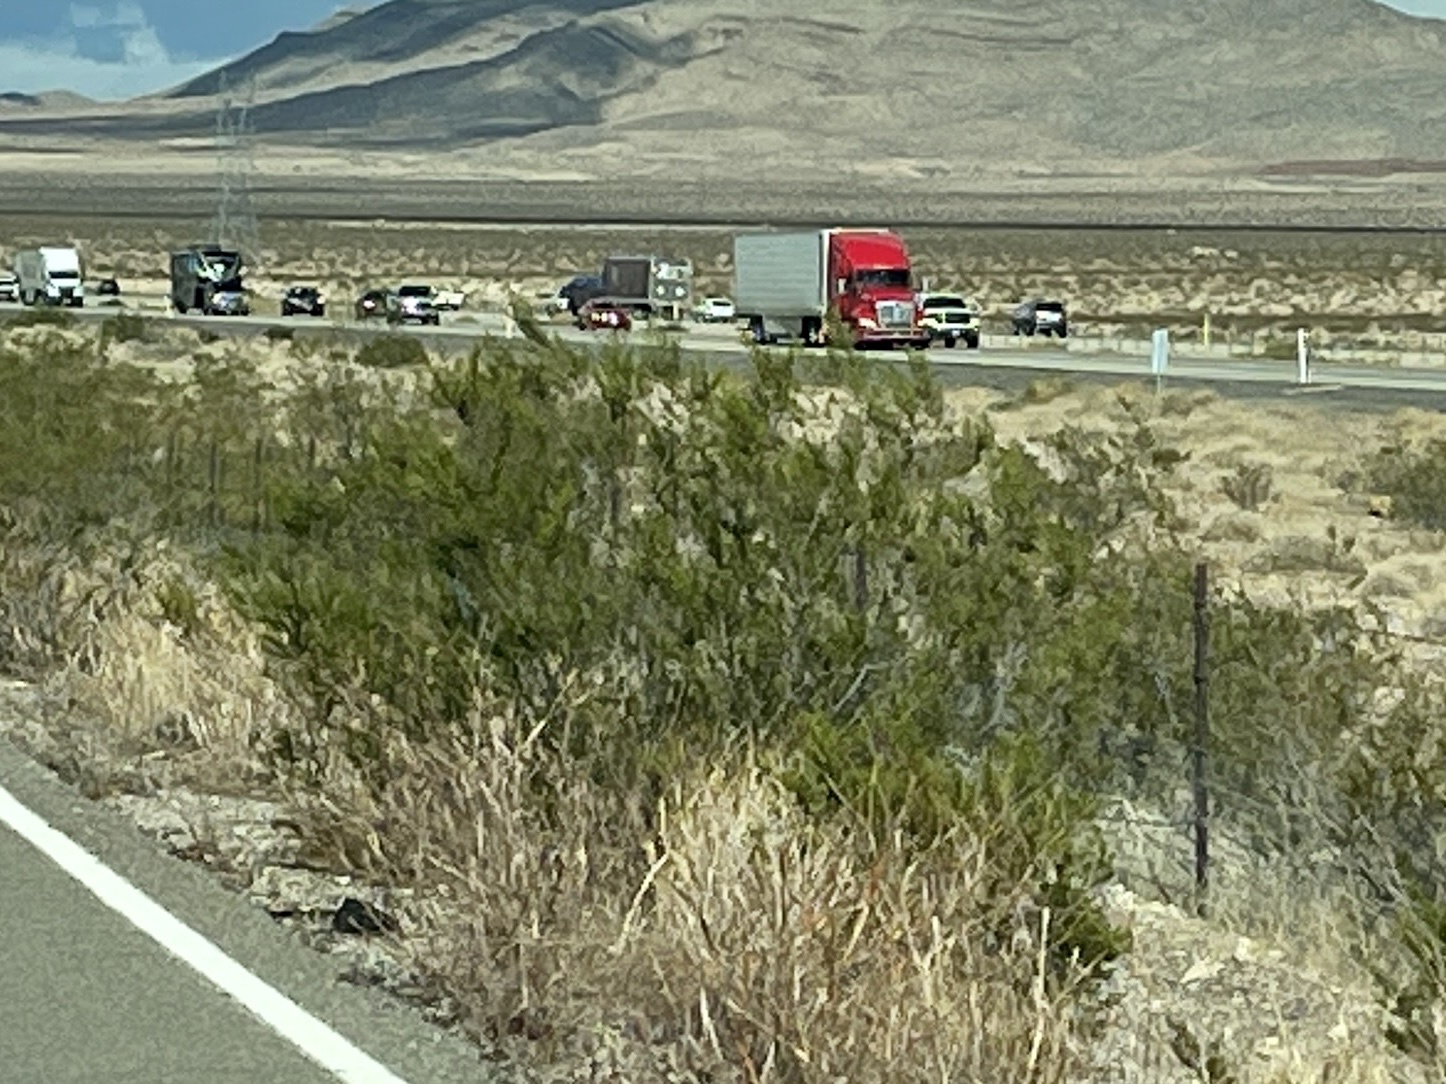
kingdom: Plantae
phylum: Tracheophyta
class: Magnoliopsida
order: Zygophyllales
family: Zygophyllaceae
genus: Larrea
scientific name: Larrea tridentata
